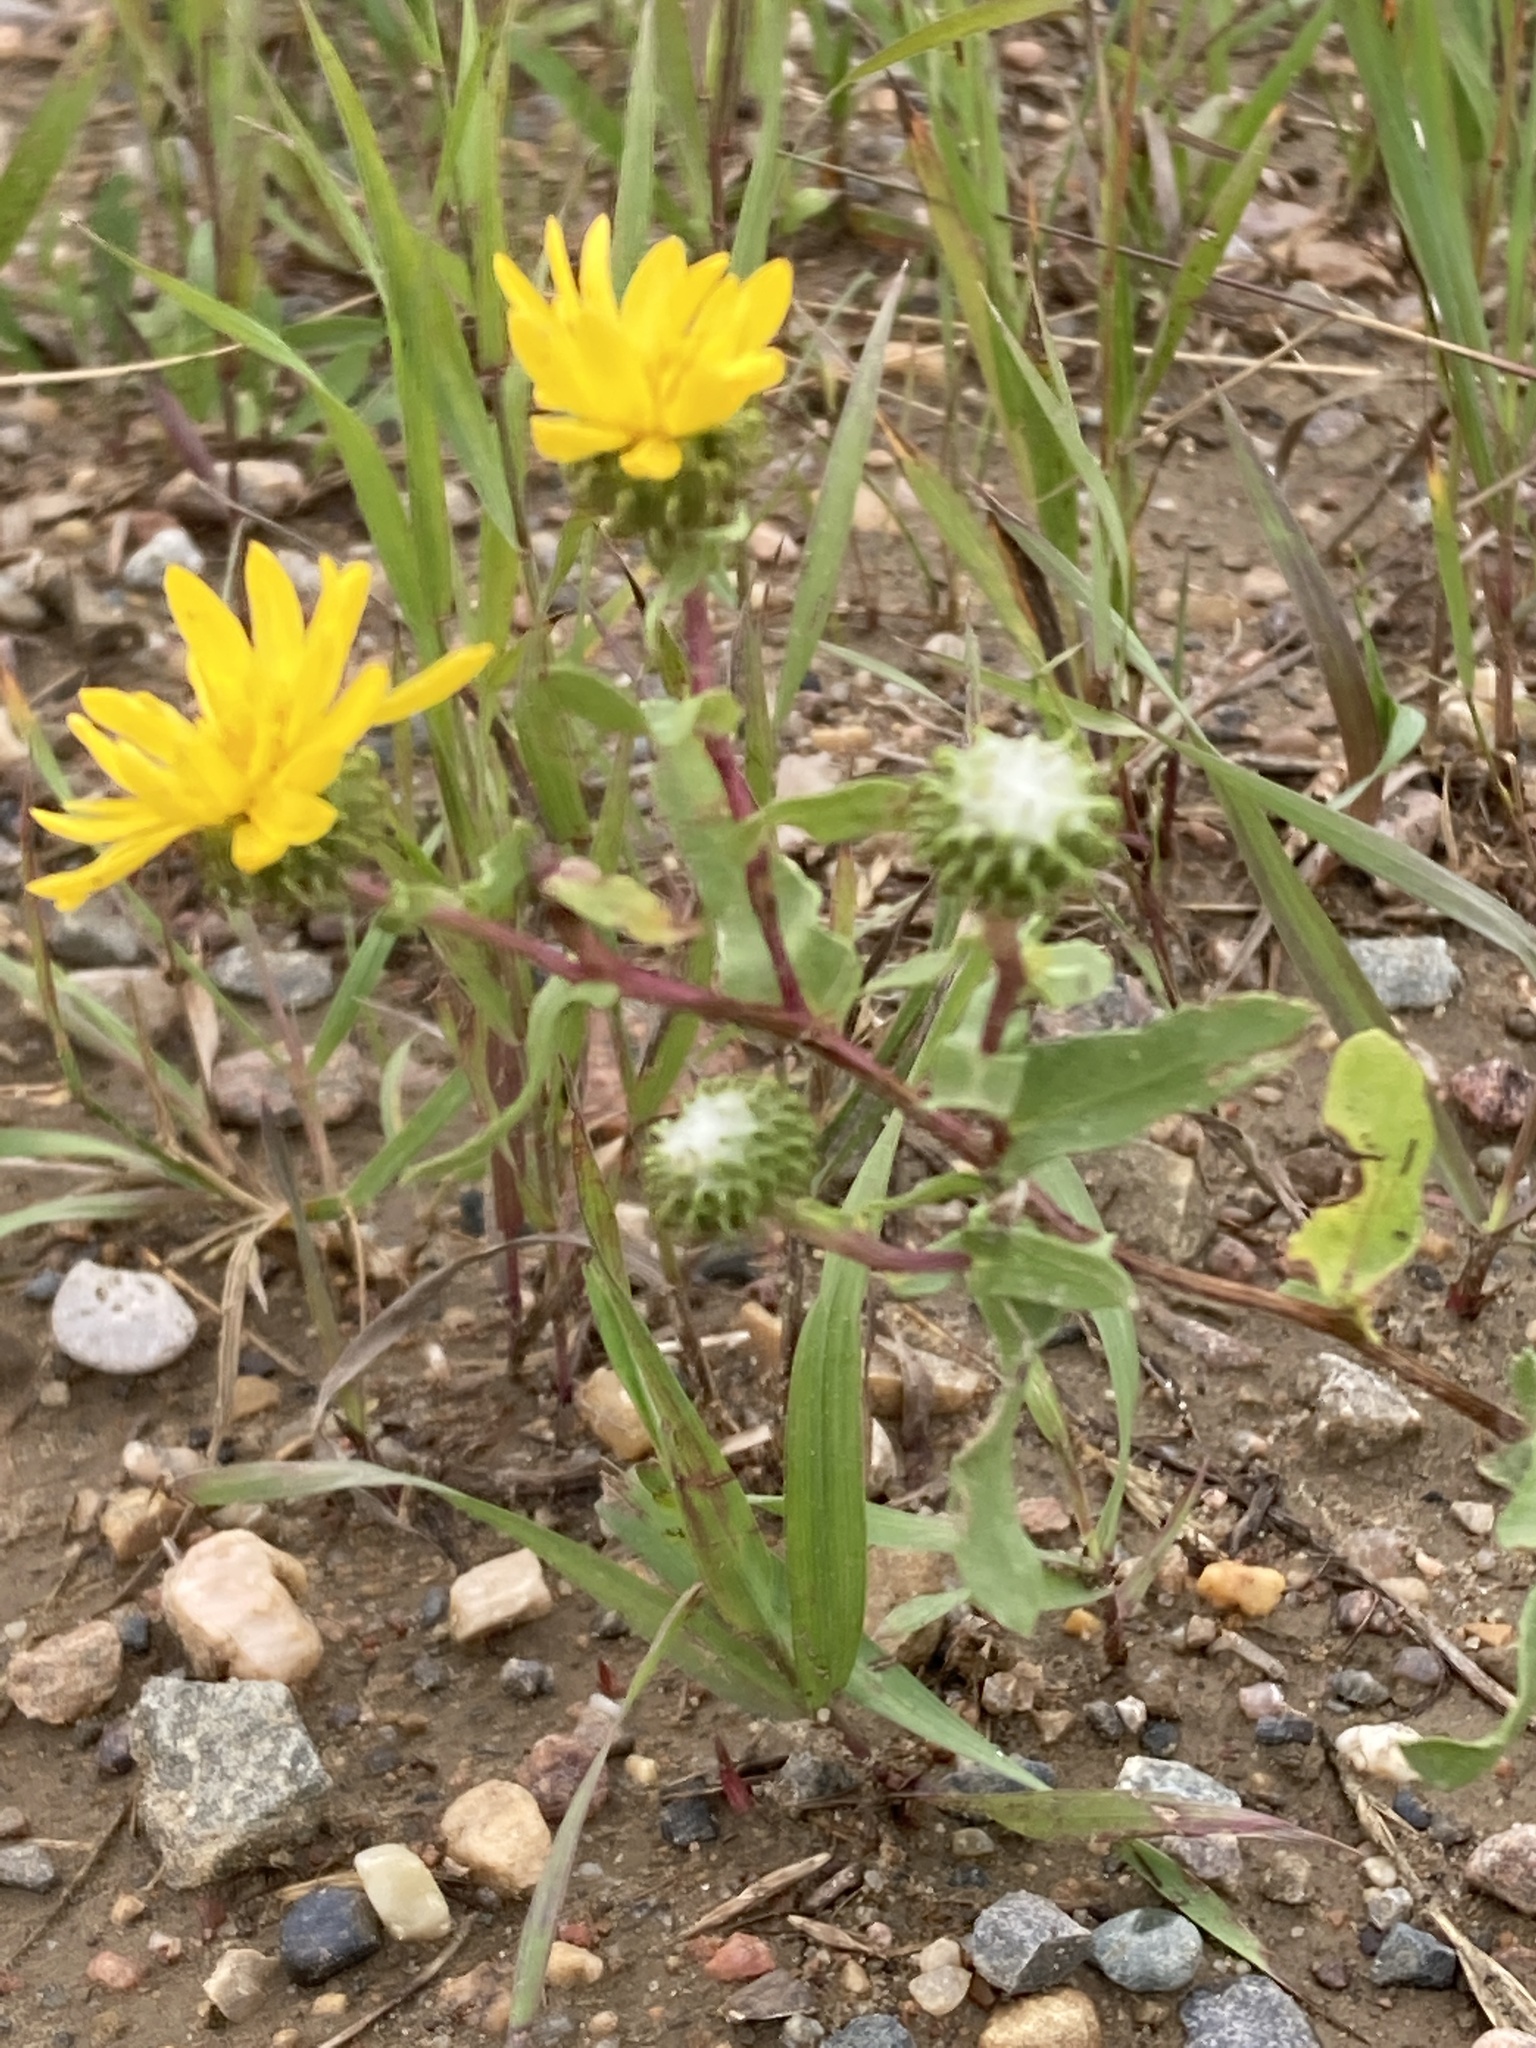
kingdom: Plantae
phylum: Tracheophyta
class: Magnoliopsida
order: Asterales
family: Asteraceae
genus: Grindelia
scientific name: Grindelia squarrosa
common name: Curly-cup gumweed
